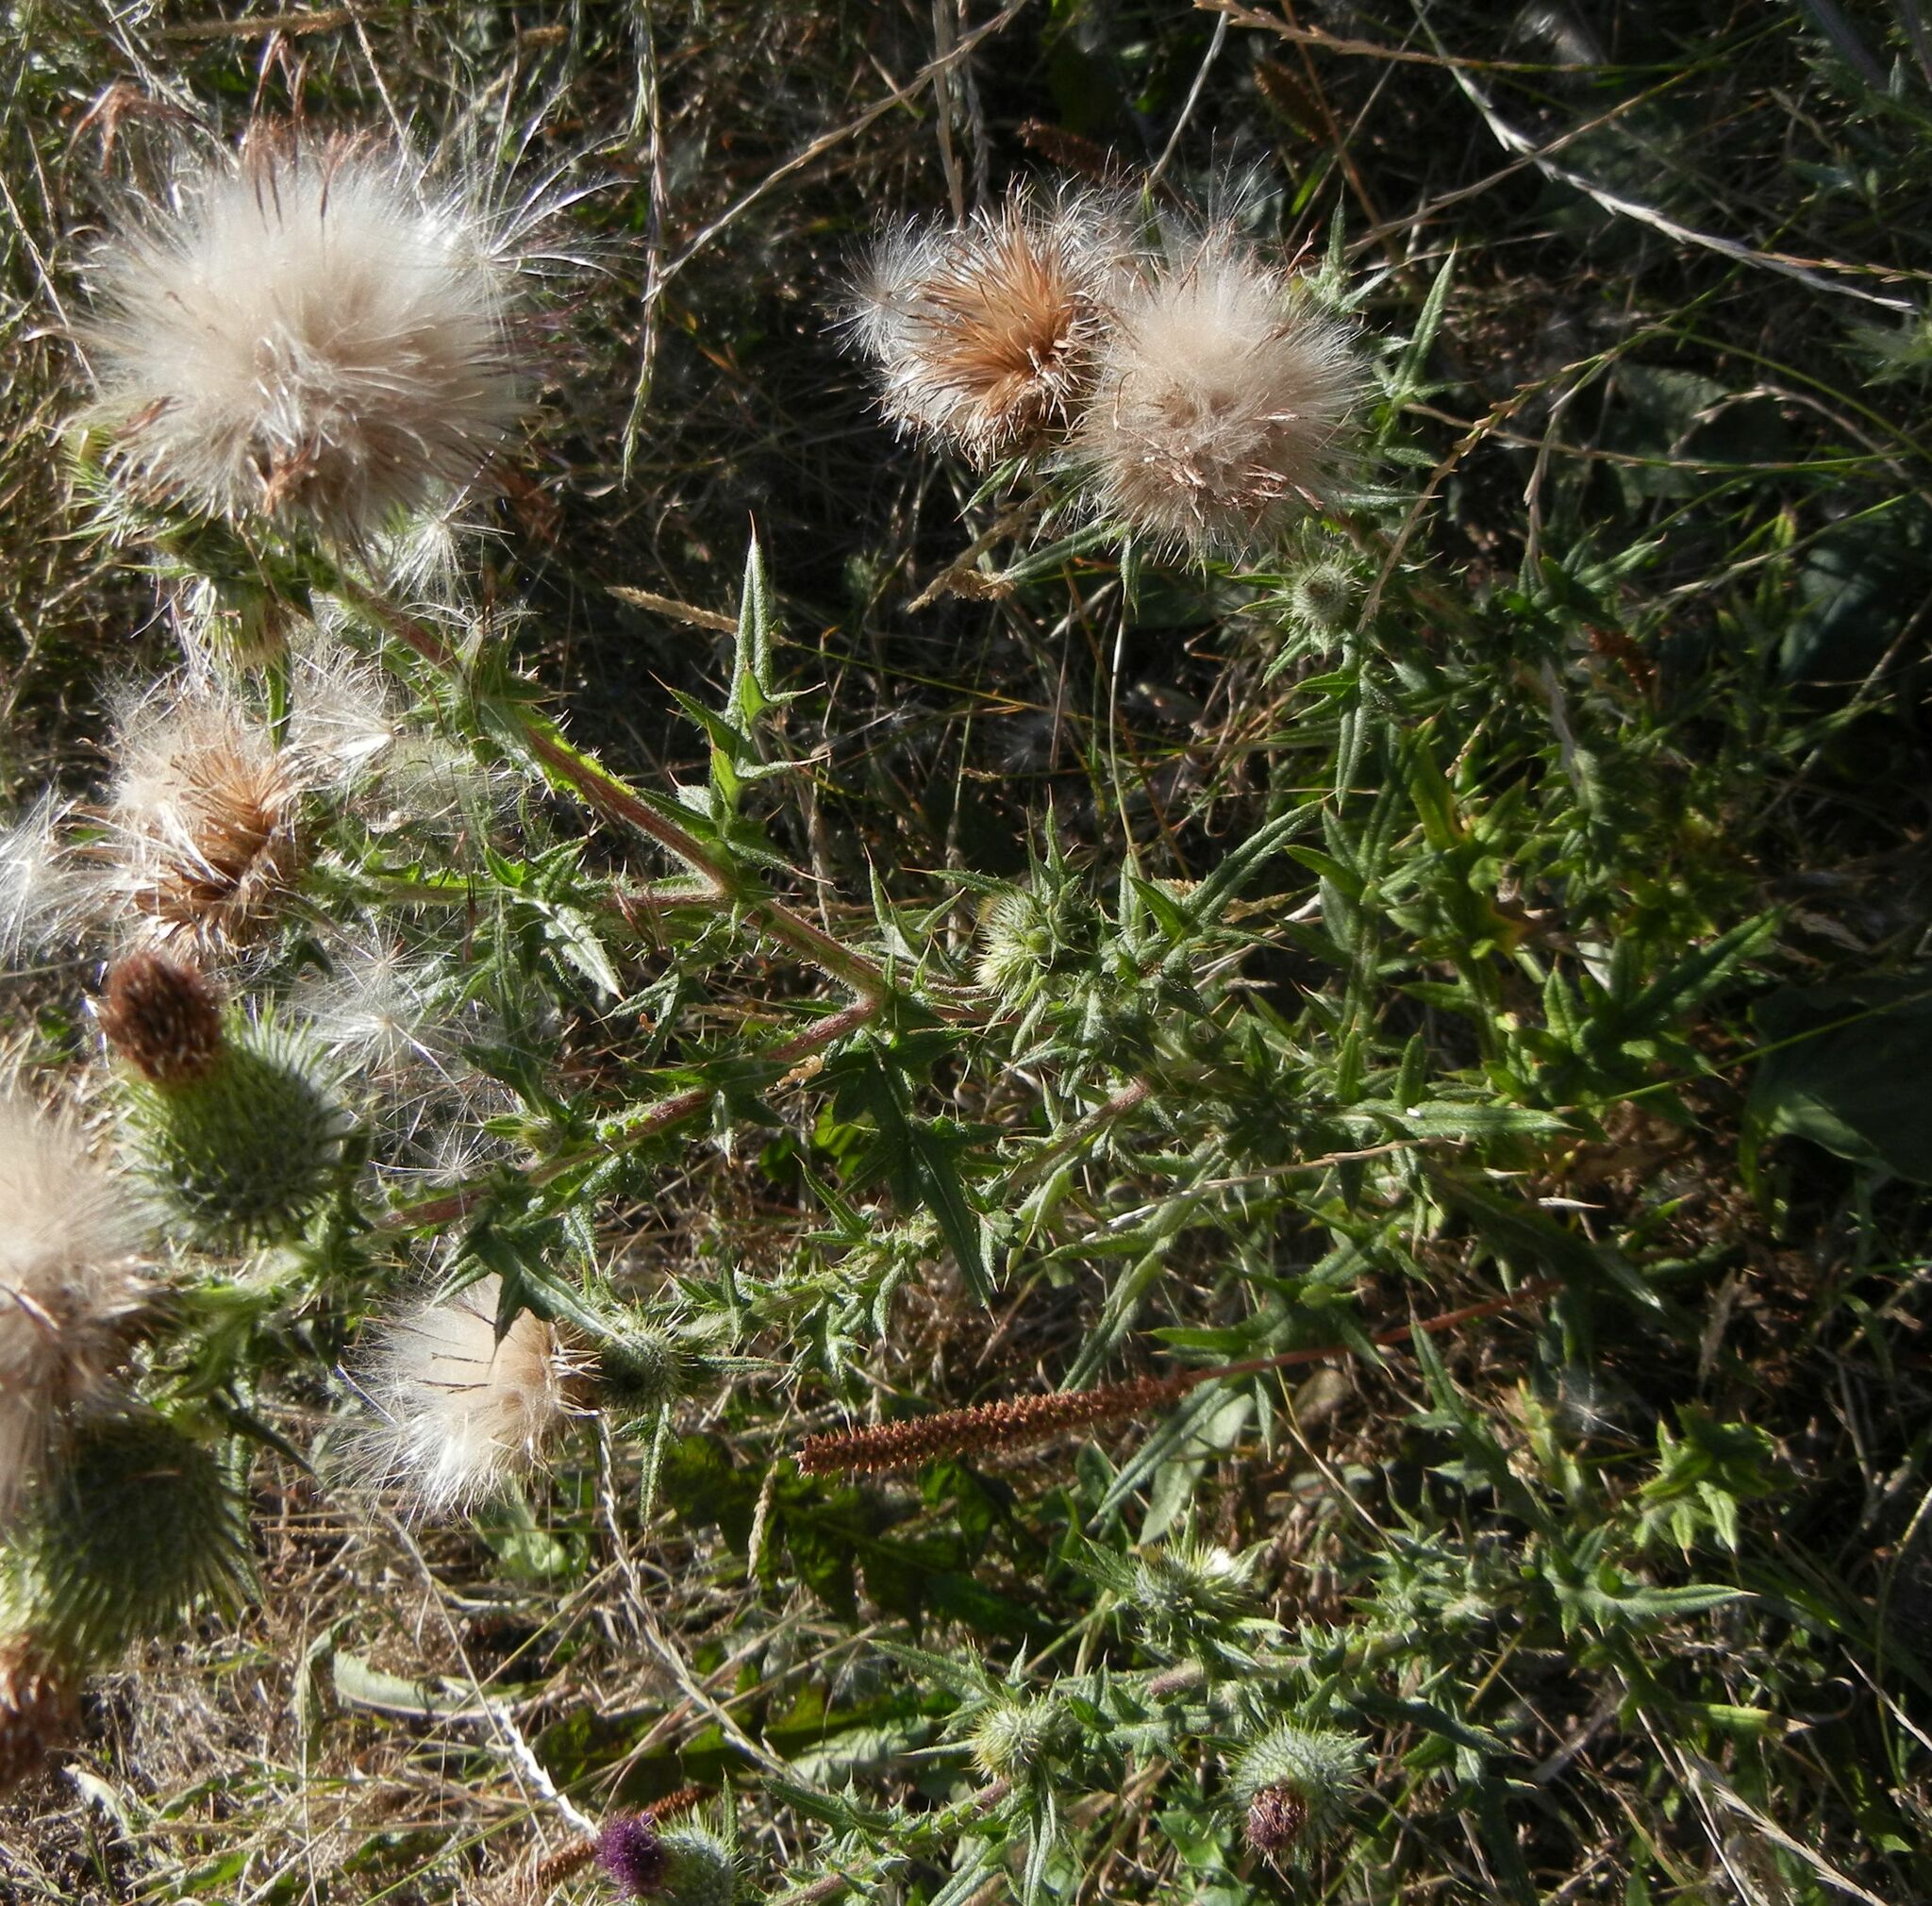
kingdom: Plantae
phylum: Tracheophyta
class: Magnoliopsida
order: Asterales
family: Asteraceae
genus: Cirsium
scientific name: Cirsium vulgare
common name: Bull thistle
